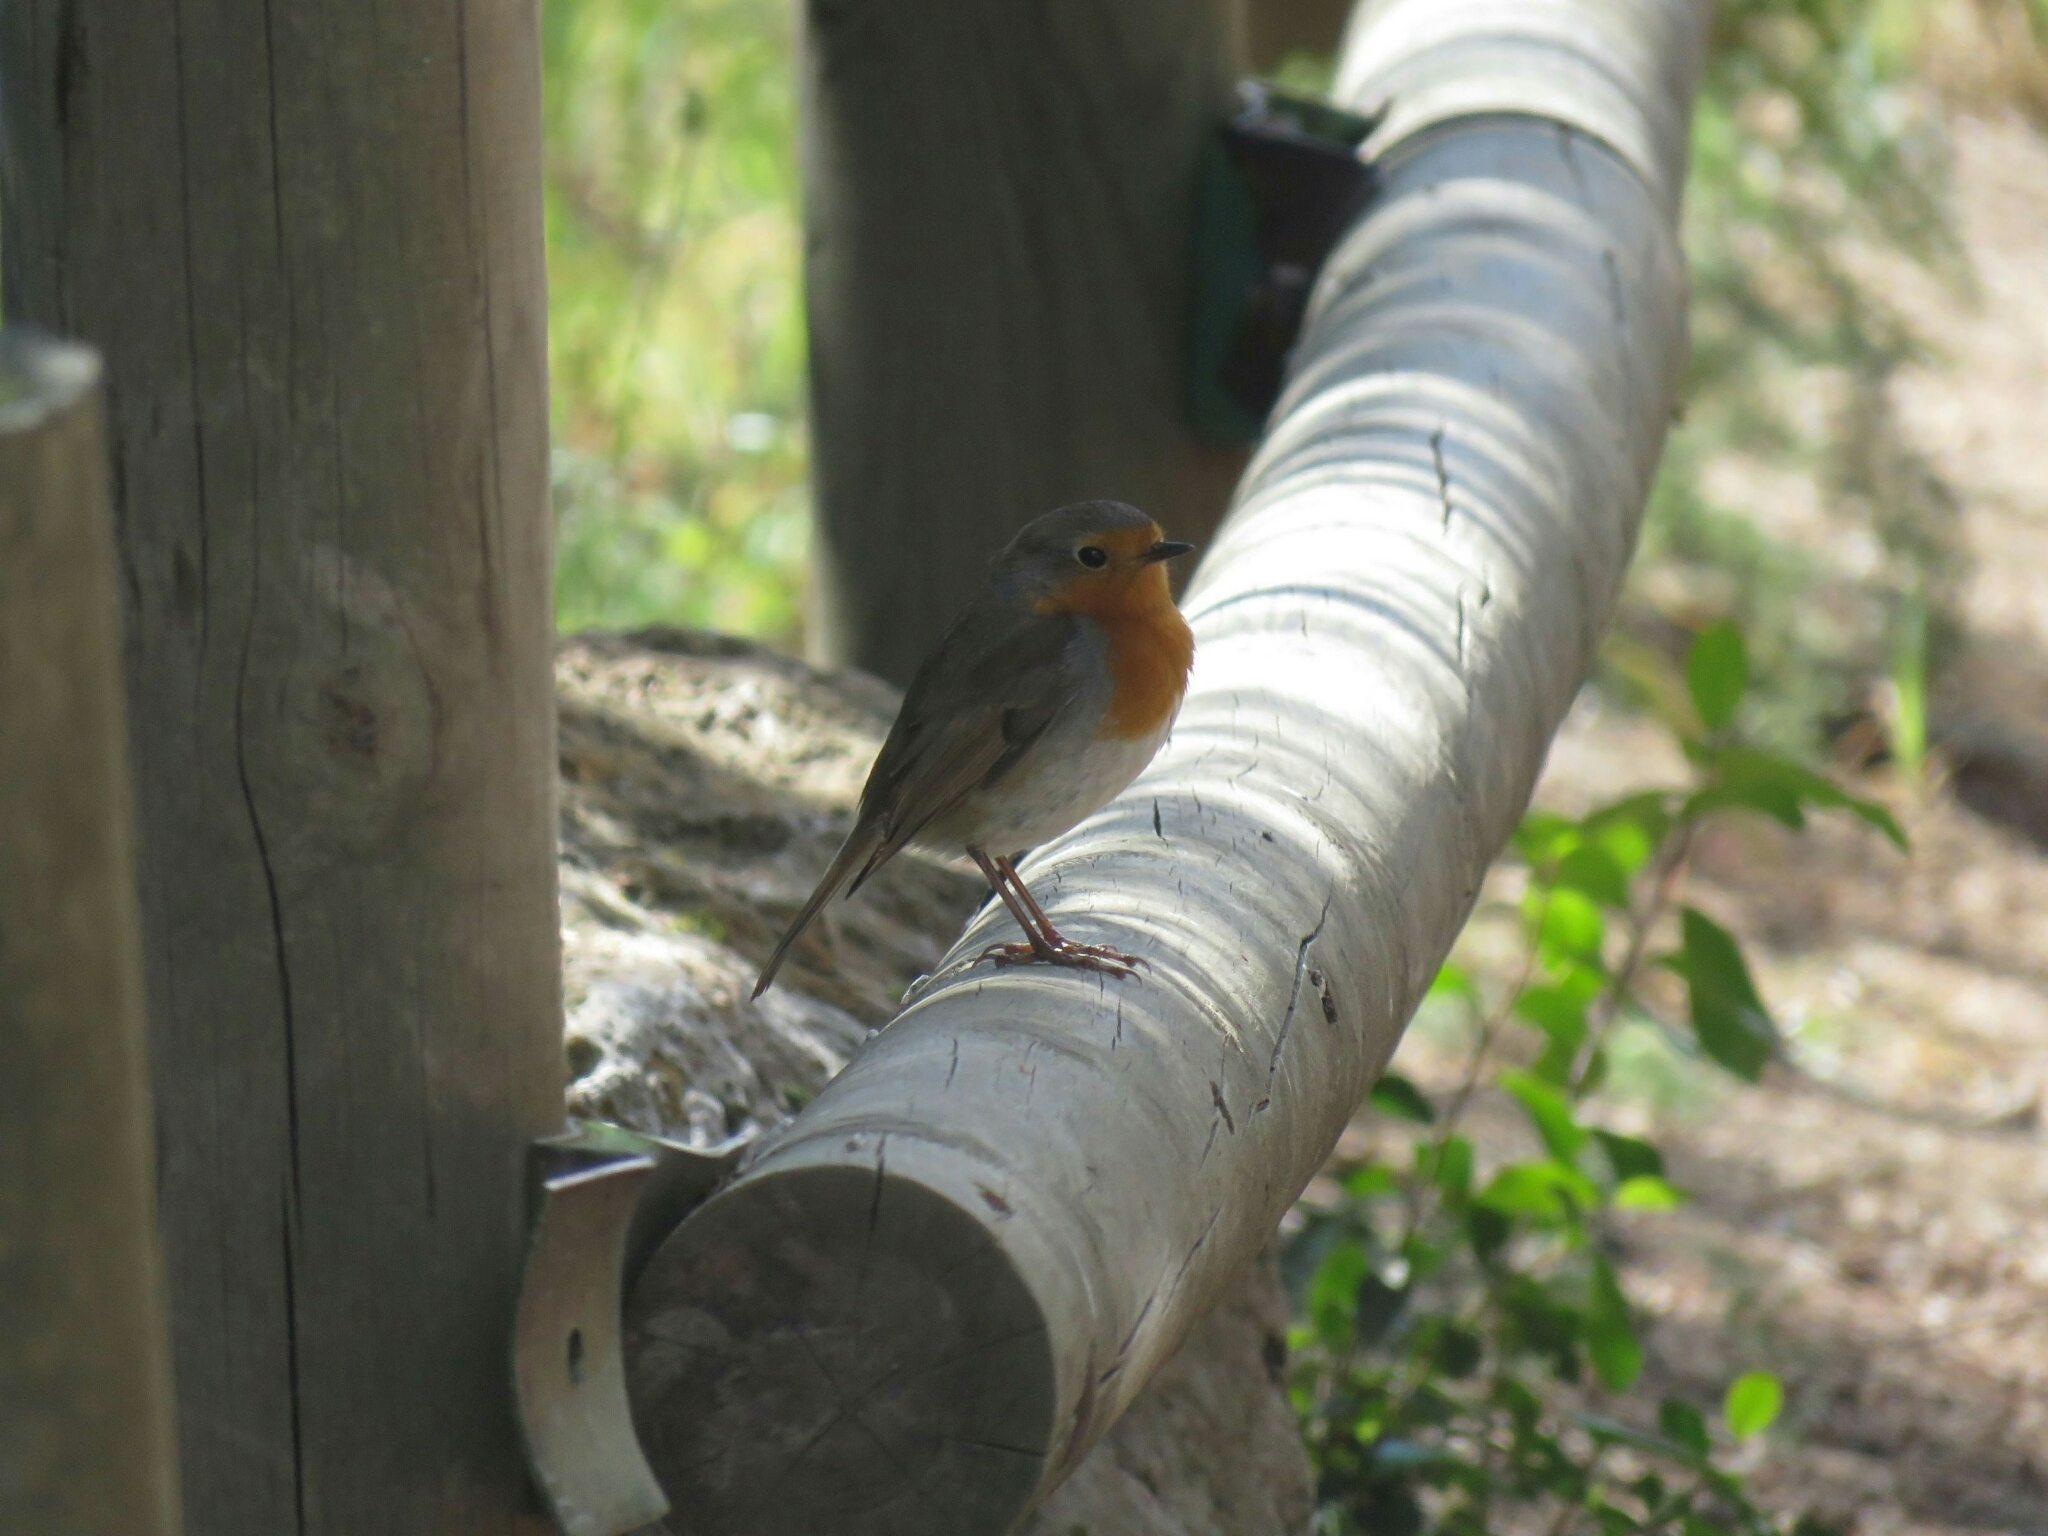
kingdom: Animalia
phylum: Chordata
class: Aves
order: Passeriformes
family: Muscicapidae
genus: Erithacus
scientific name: Erithacus rubecula
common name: European robin
